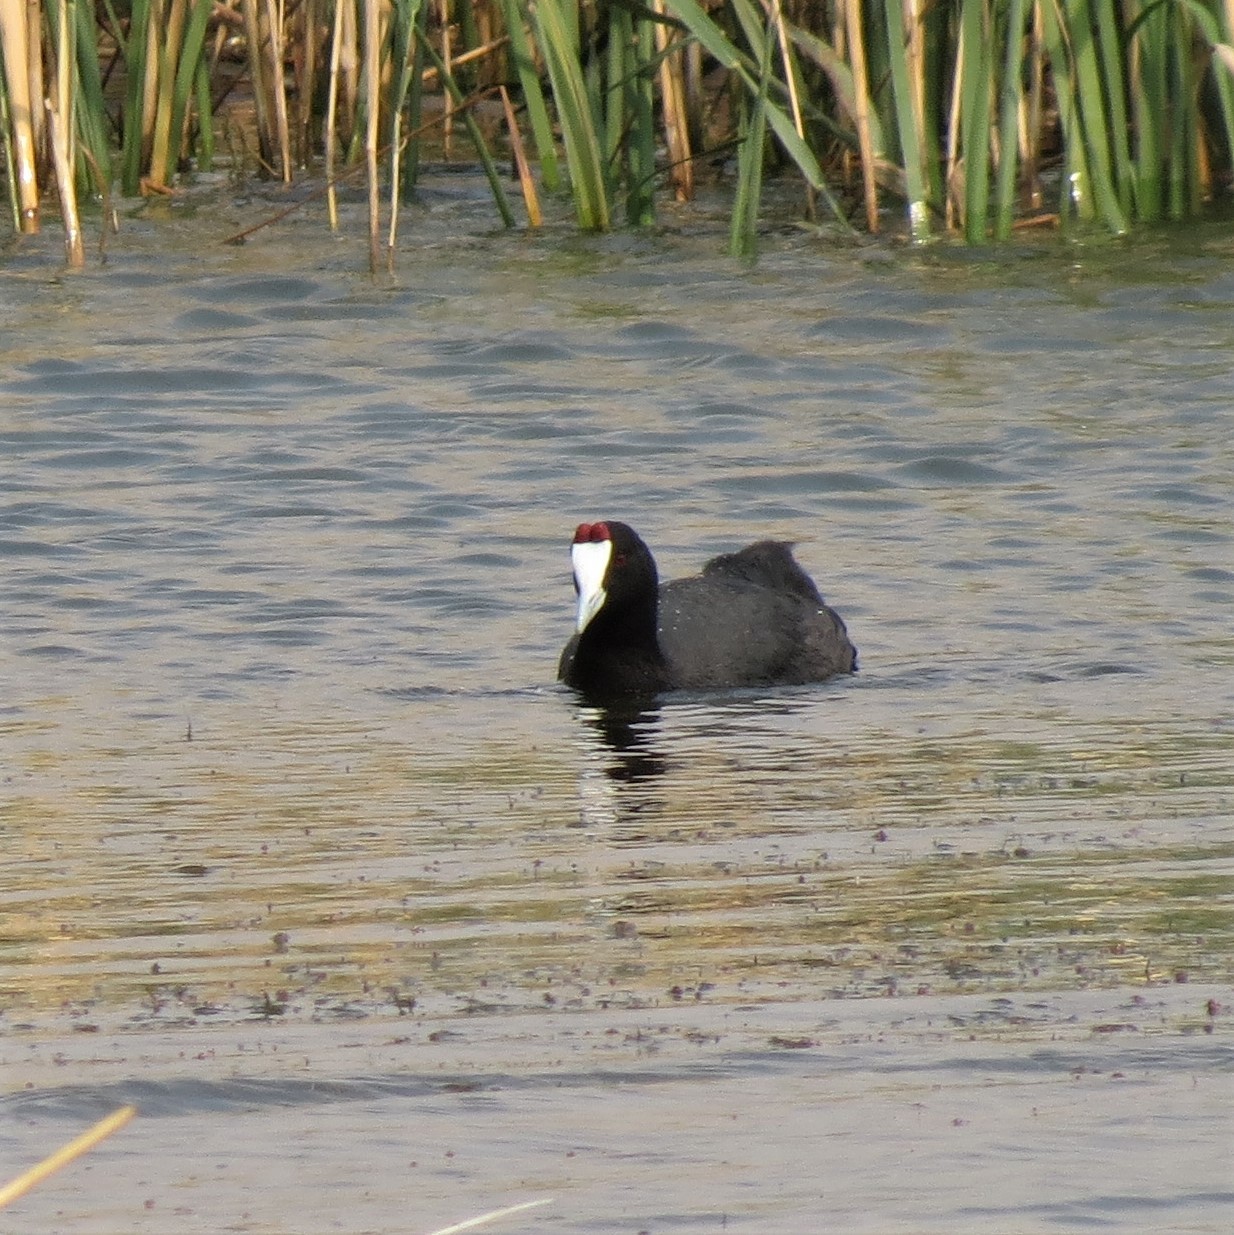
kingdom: Animalia
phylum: Chordata
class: Aves
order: Gruiformes
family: Rallidae
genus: Fulica
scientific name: Fulica cristata
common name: Red-knobbed coot
